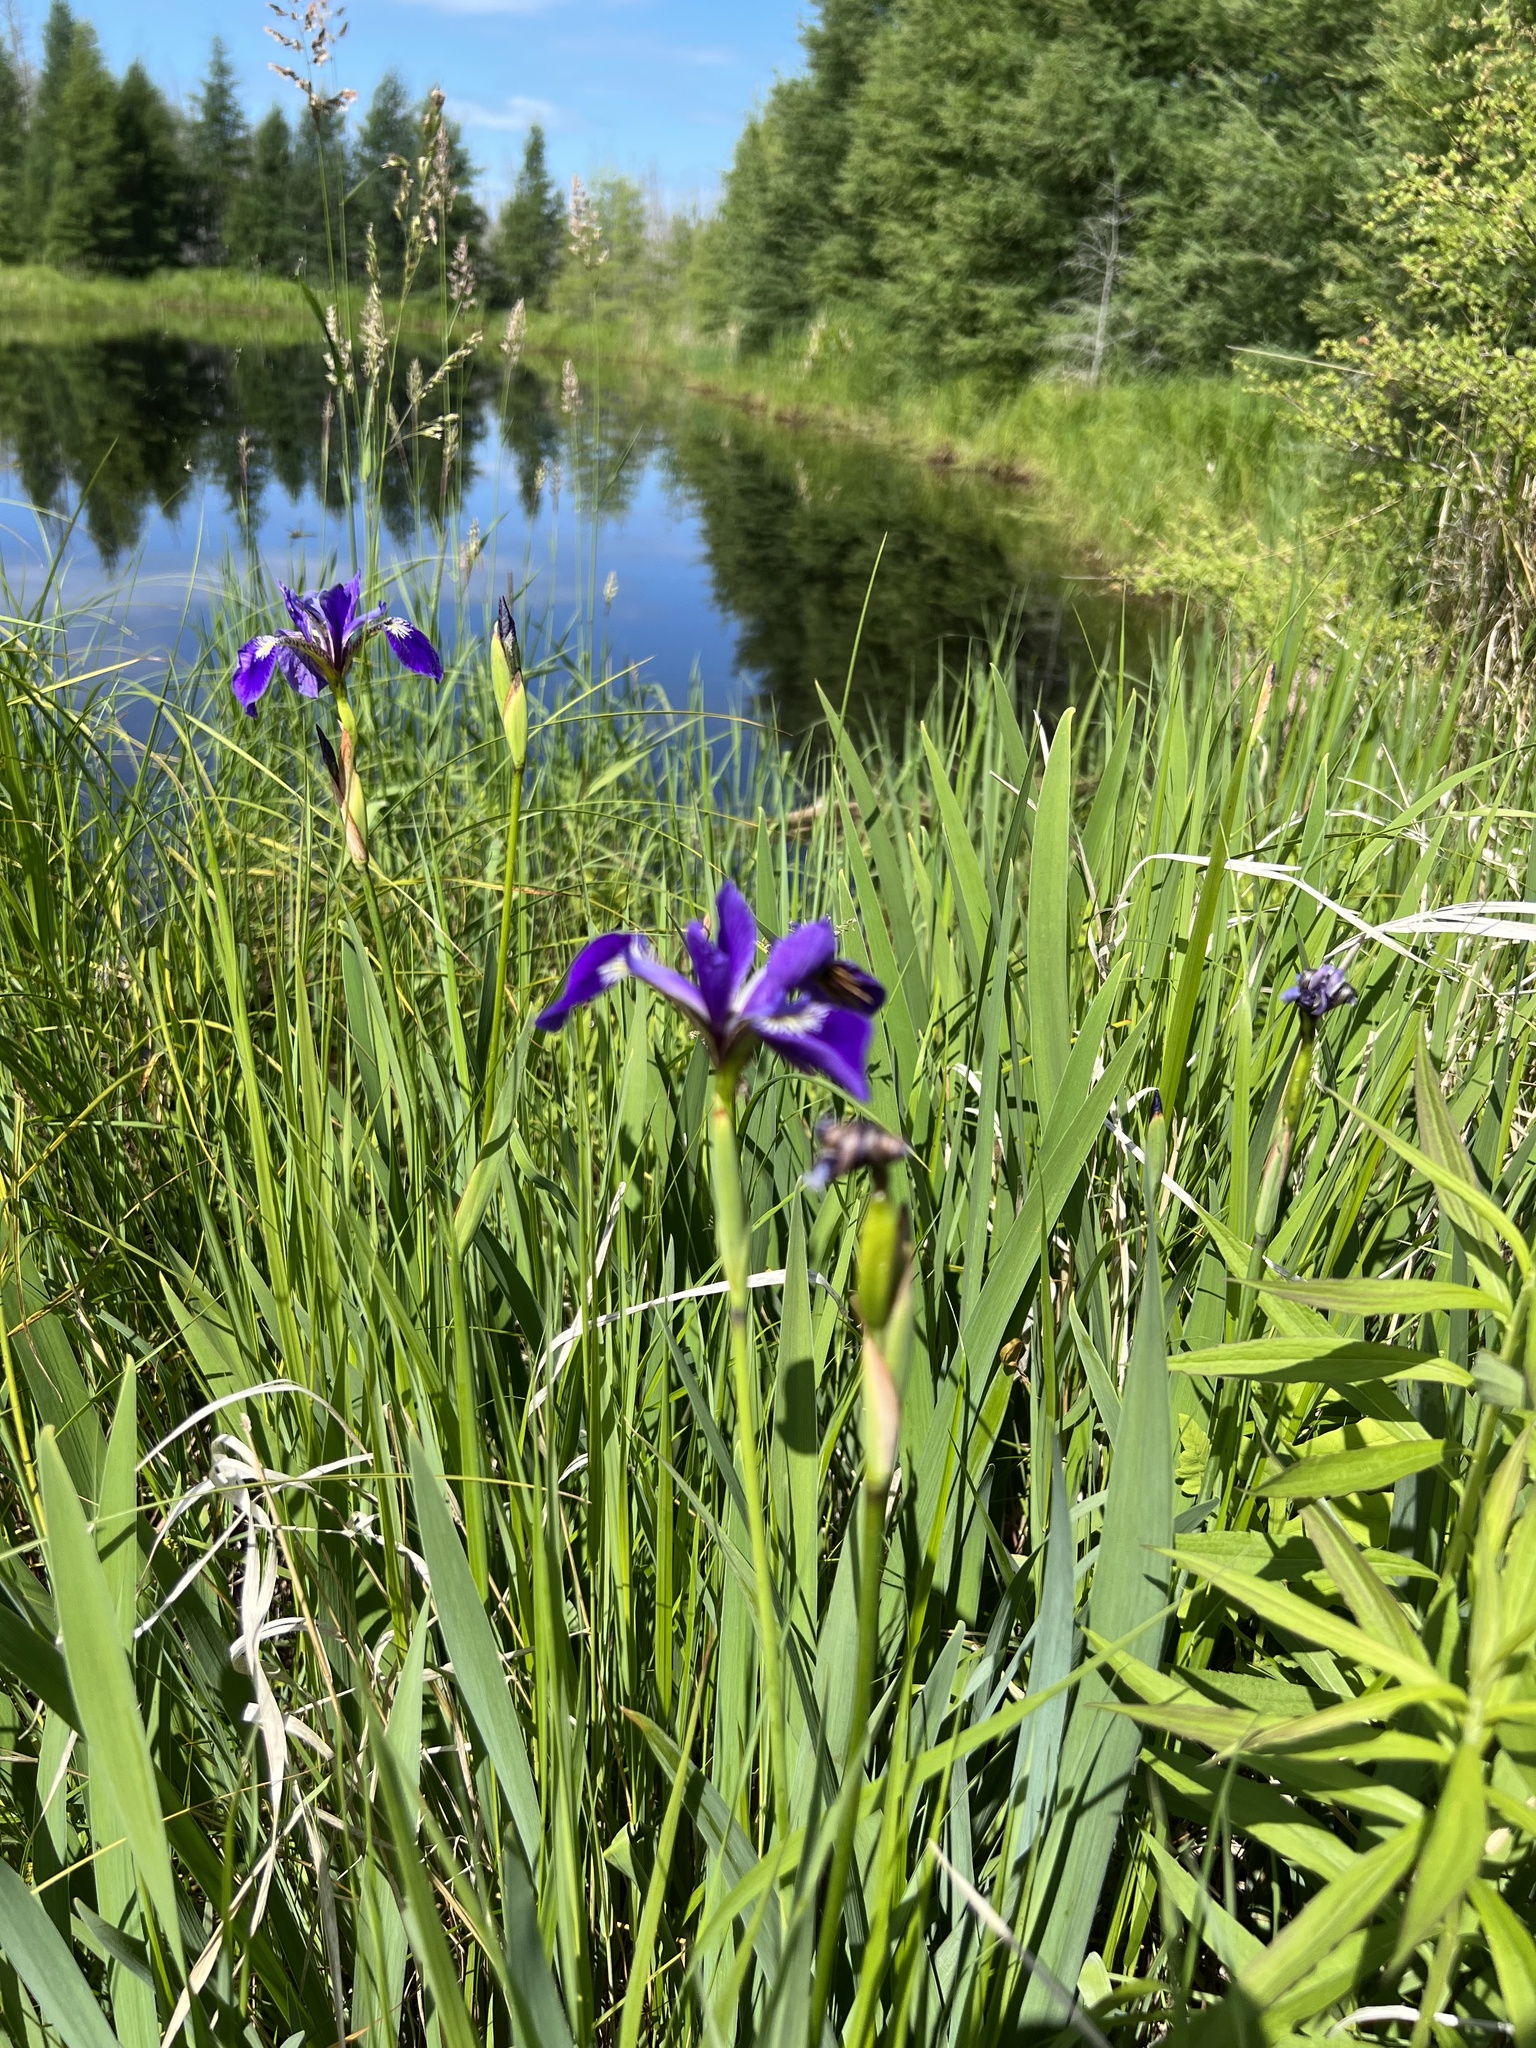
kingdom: Plantae
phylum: Tracheophyta
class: Liliopsida
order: Asparagales
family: Iridaceae
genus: Iris
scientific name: Iris versicolor
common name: Purple iris
